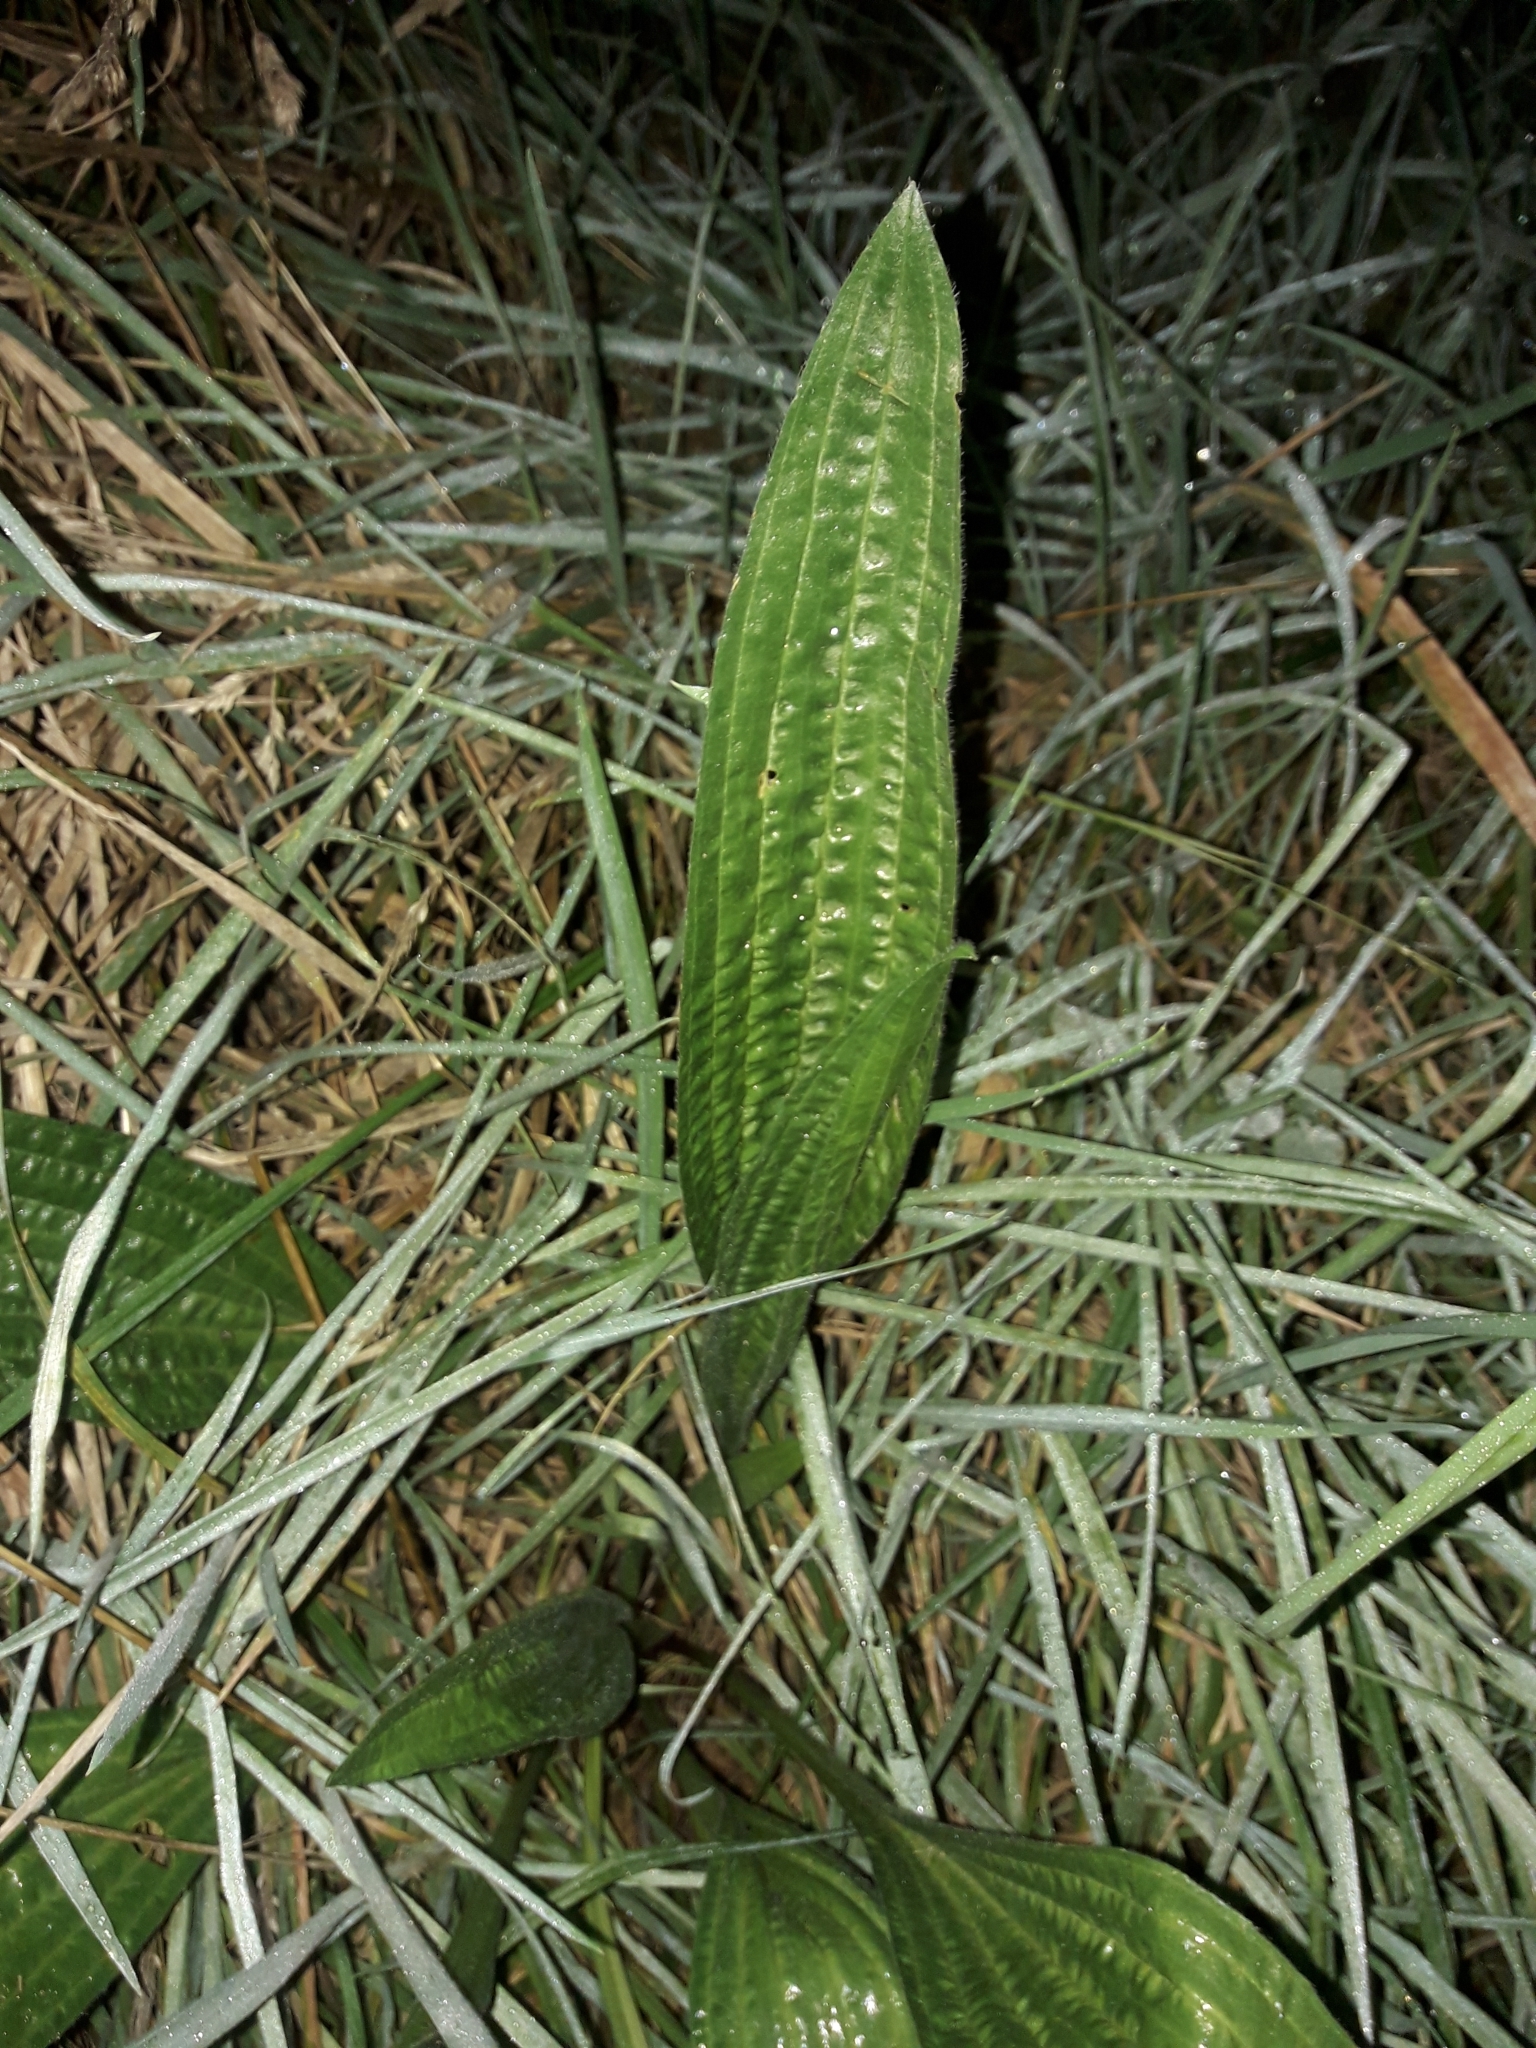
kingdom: Plantae
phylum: Tracheophyta
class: Magnoliopsida
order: Lamiales
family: Plantaginaceae
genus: Plantago
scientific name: Plantago lanceolata
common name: Ribwort plantain
